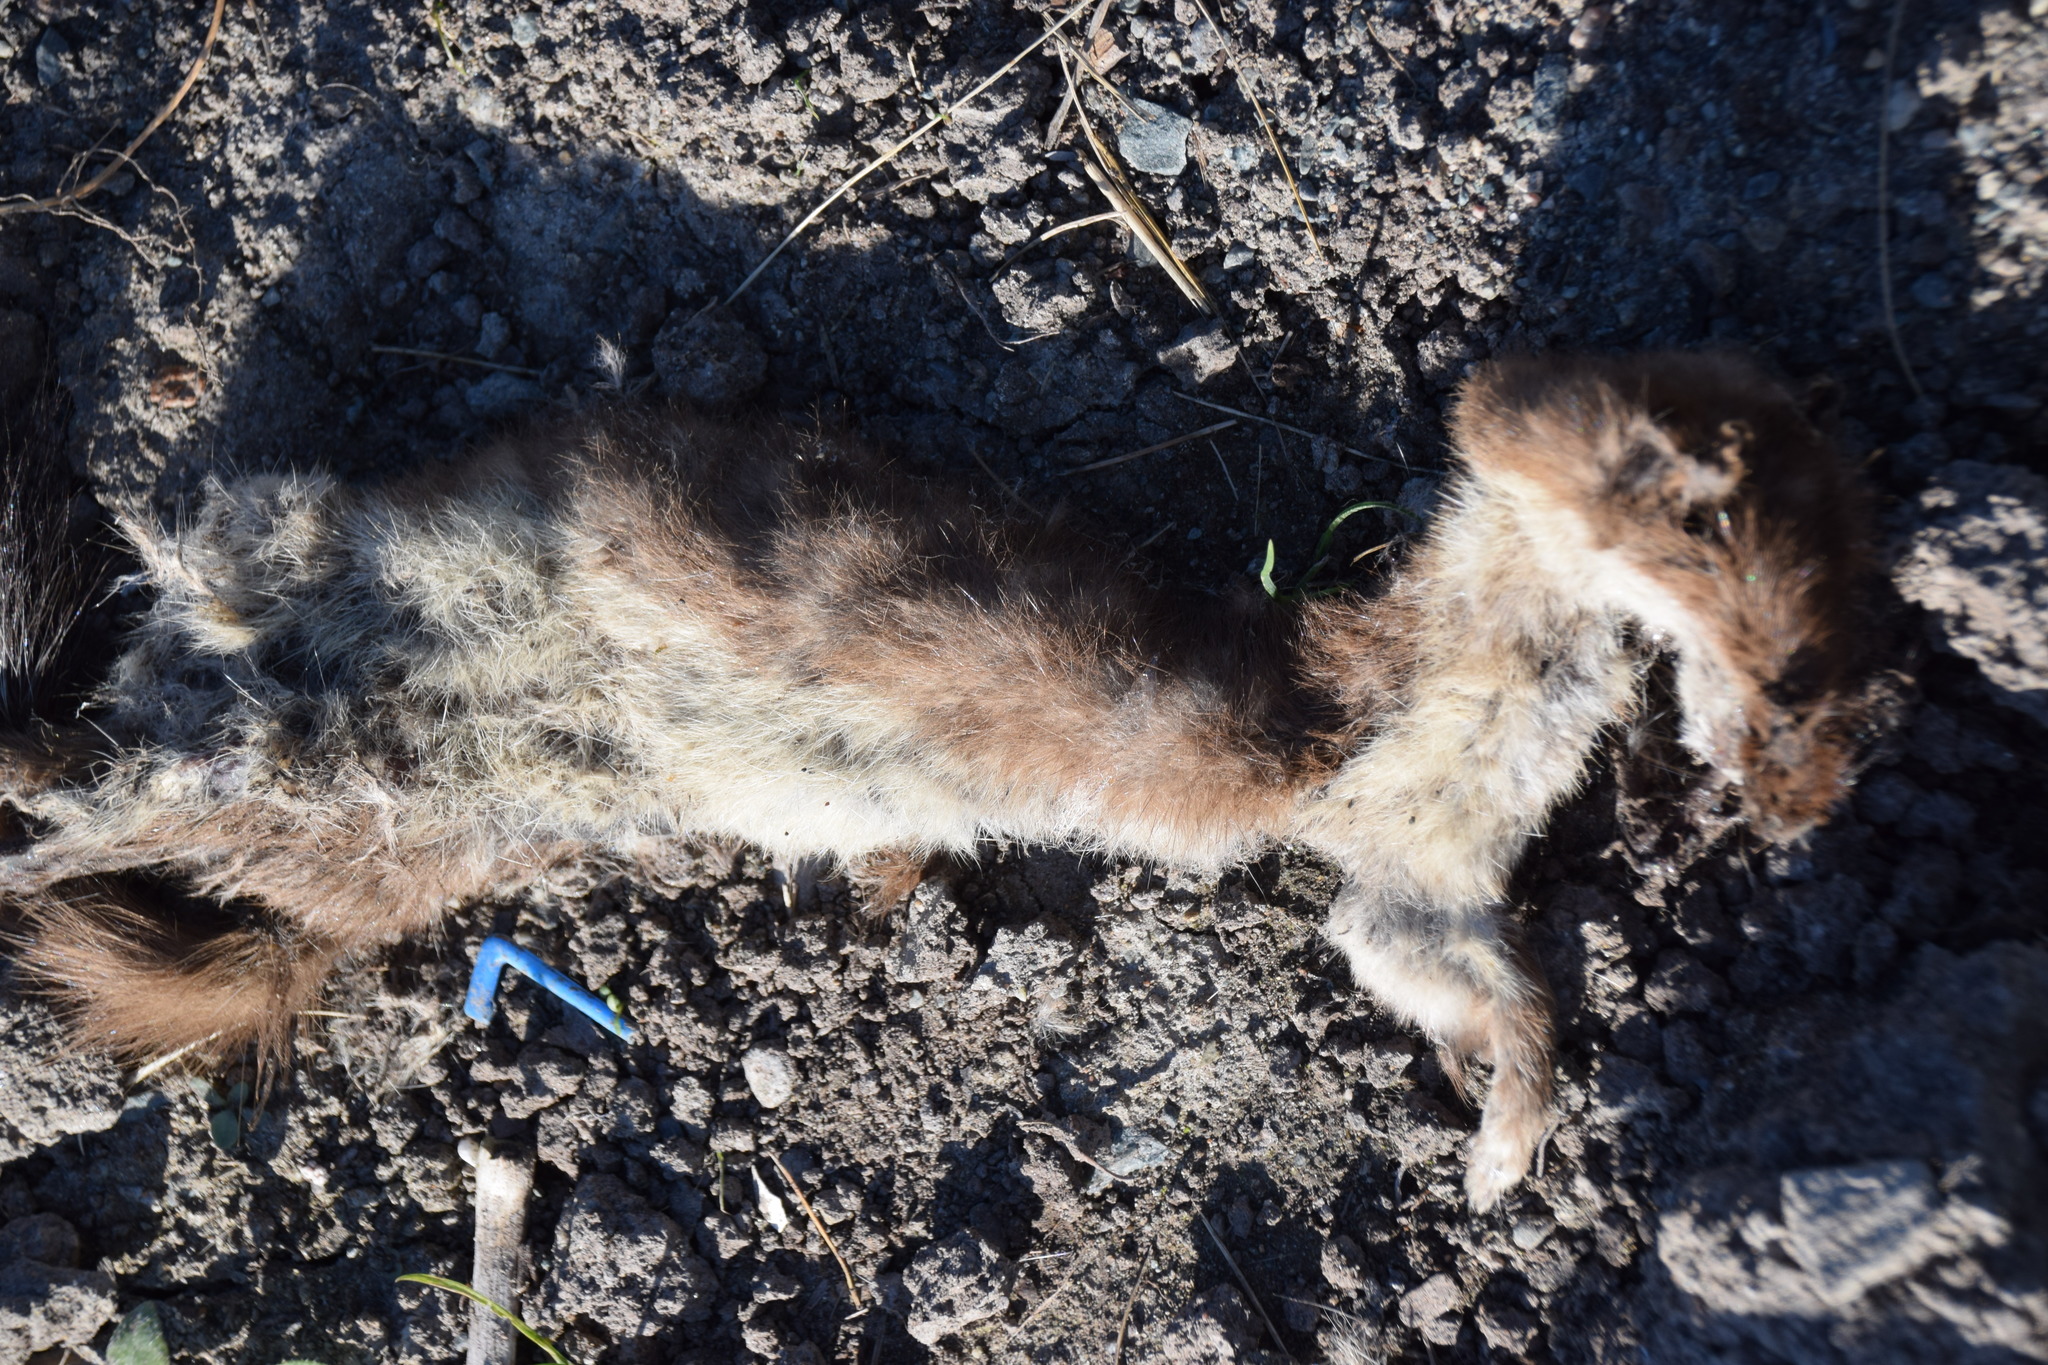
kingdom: Animalia
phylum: Chordata
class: Mammalia
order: Carnivora
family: Mustelidae
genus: Mustela
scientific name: Mustela erminea
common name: Stoat
